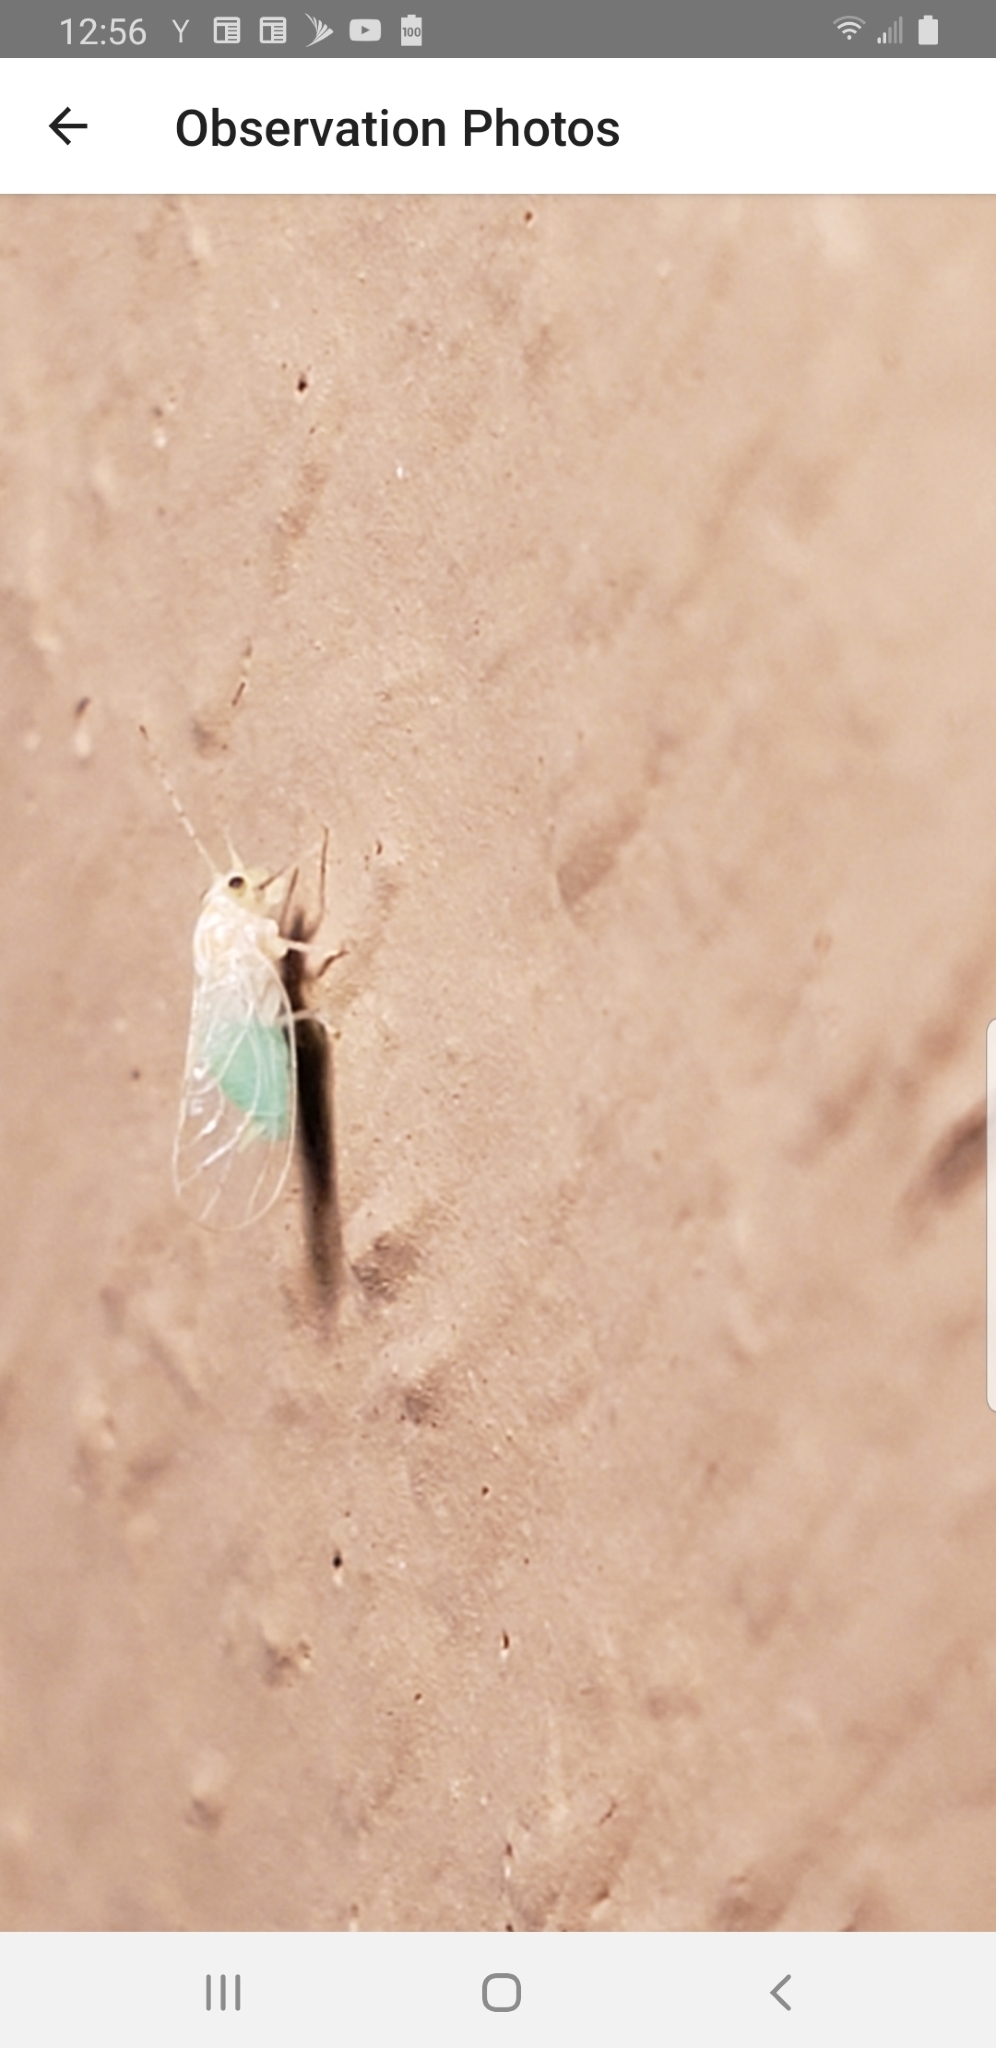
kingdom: Animalia
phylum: Arthropoda
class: Insecta
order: Hemiptera
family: Psyllidae
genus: Cacopsylla
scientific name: Cacopsylla annulata
